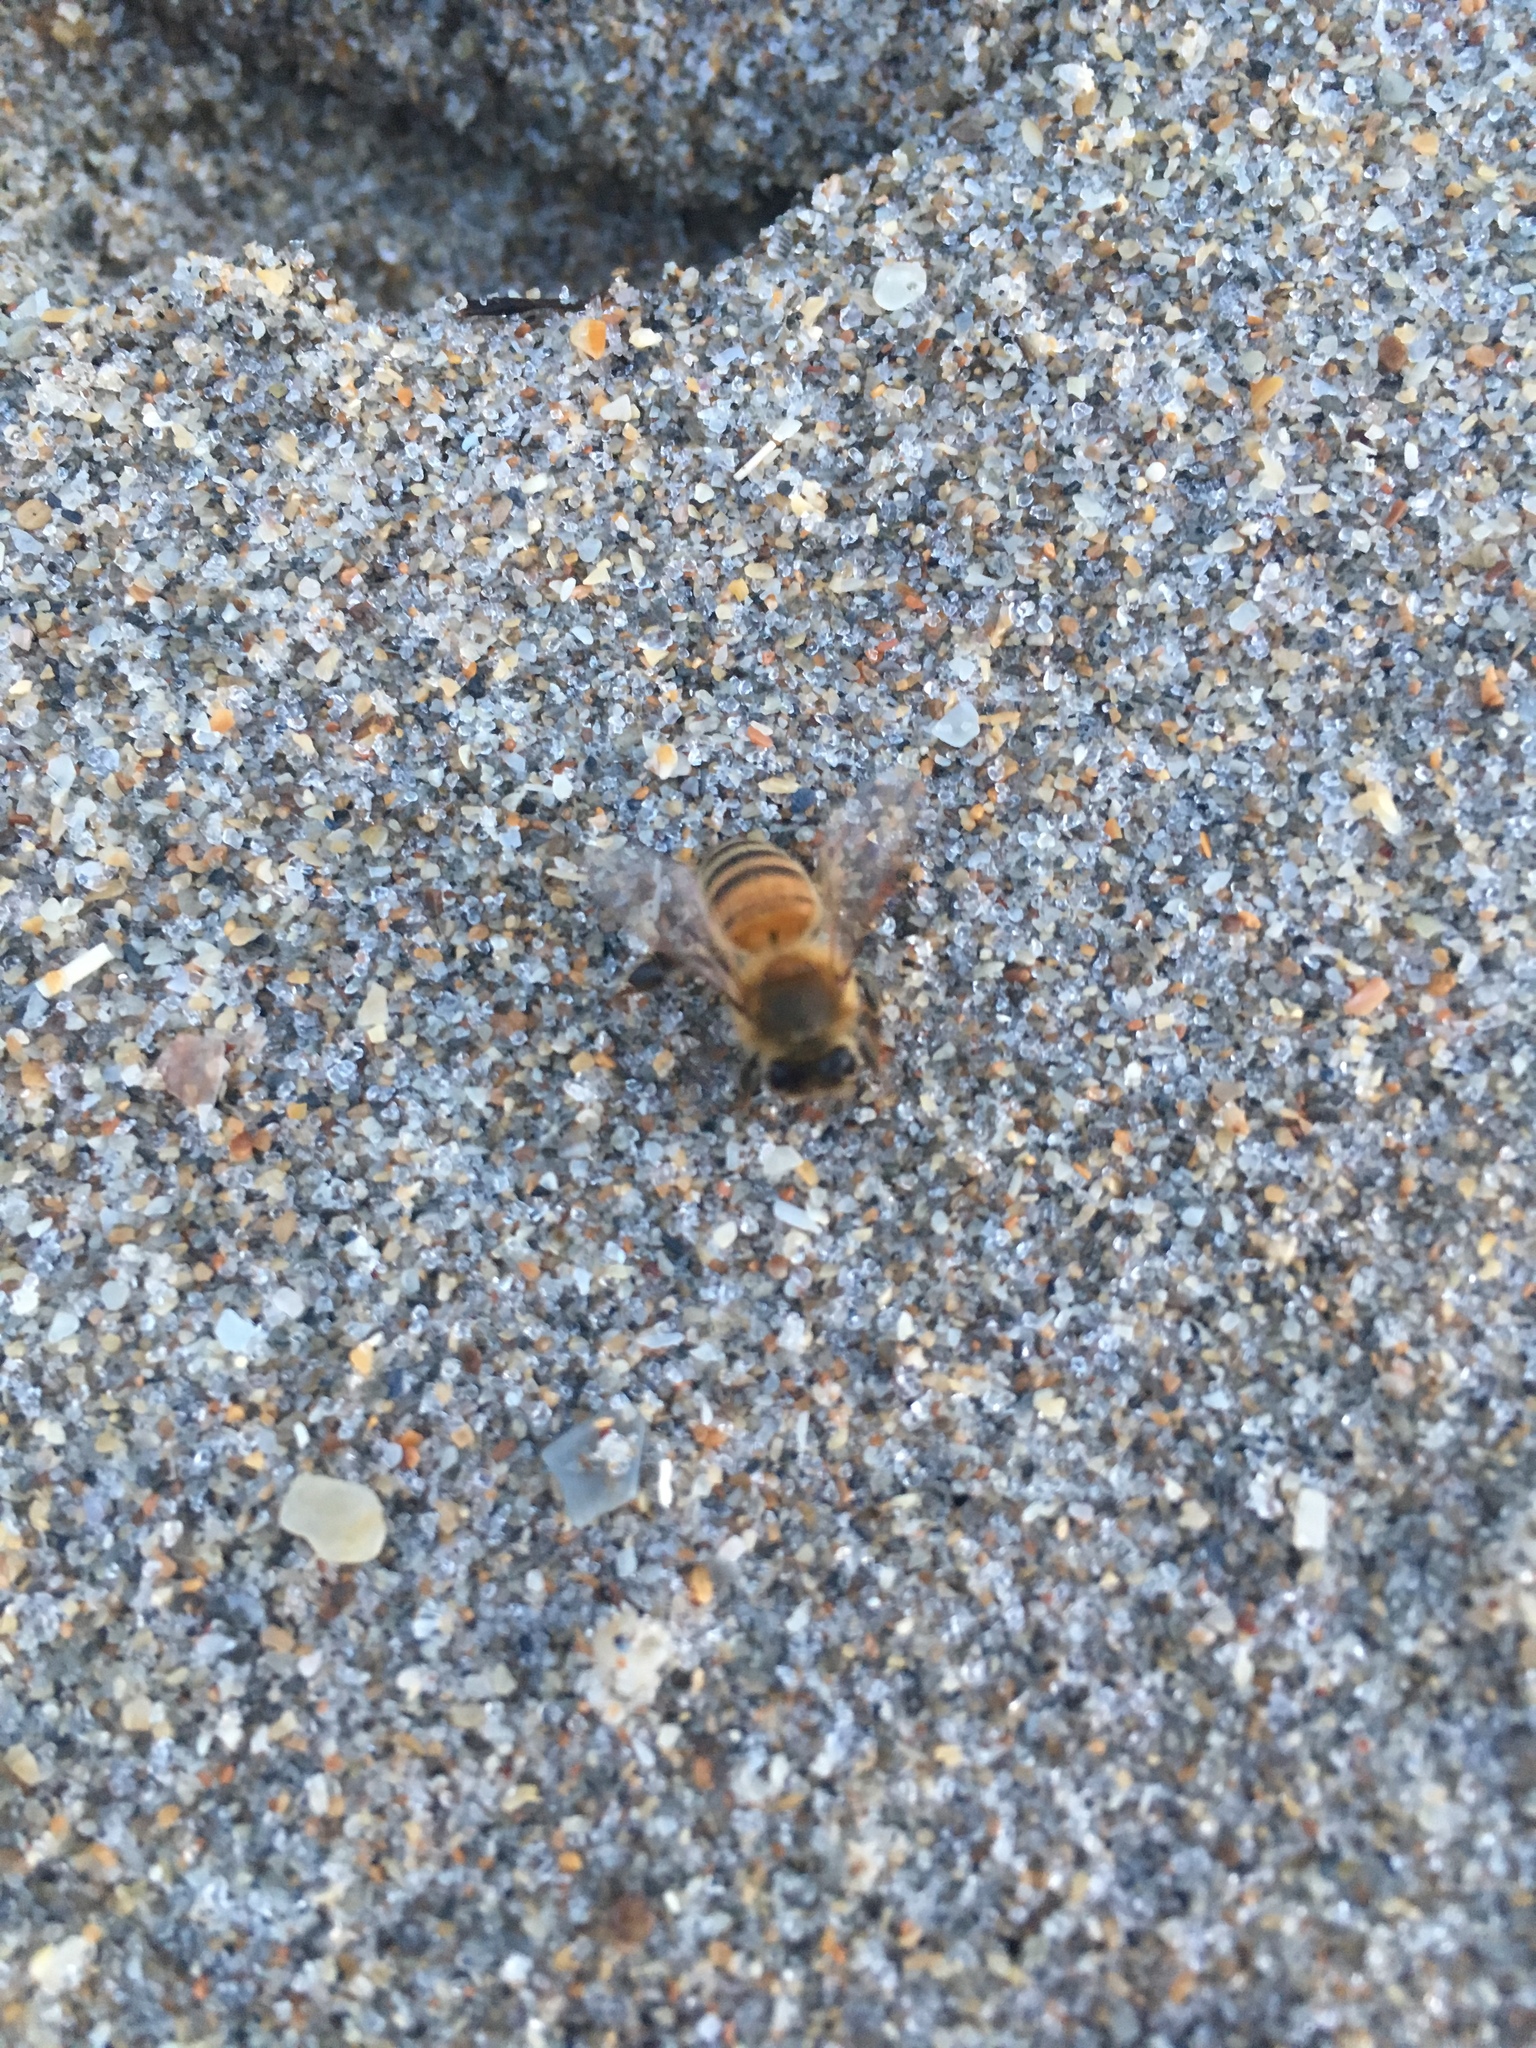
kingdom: Animalia
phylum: Arthropoda
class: Insecta
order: Hymenoptera
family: Apidae
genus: Apis
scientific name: Apis mellifera
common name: Honey bee
